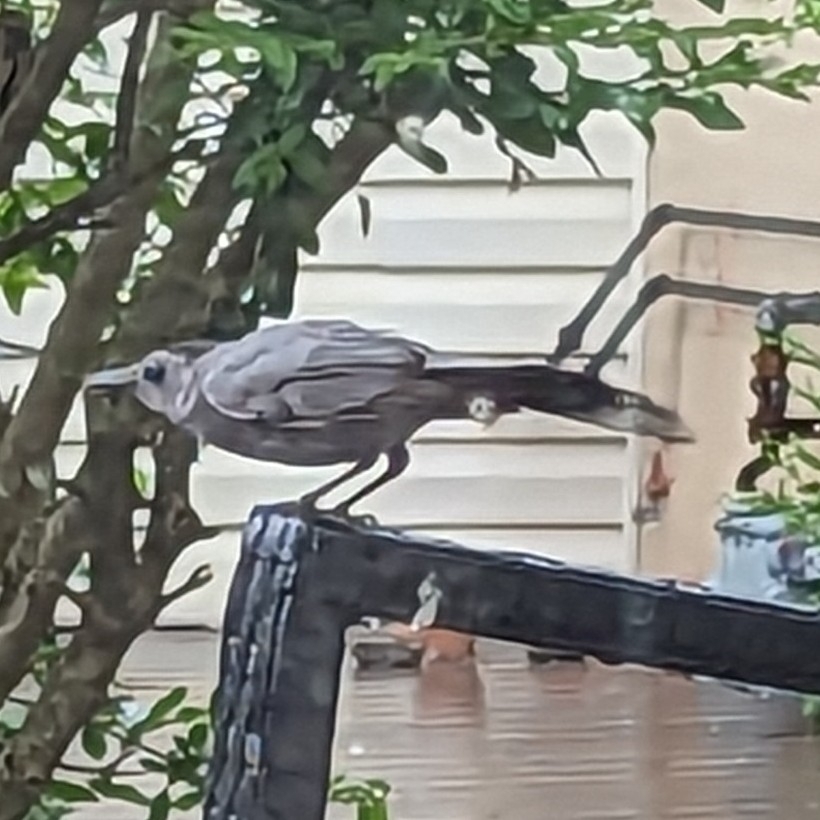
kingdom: Animalia
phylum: Chordata
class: Aves
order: Passeriformes
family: Mimidae
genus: Dumetella
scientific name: Dumetella carolinensis
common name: Gray catbird
